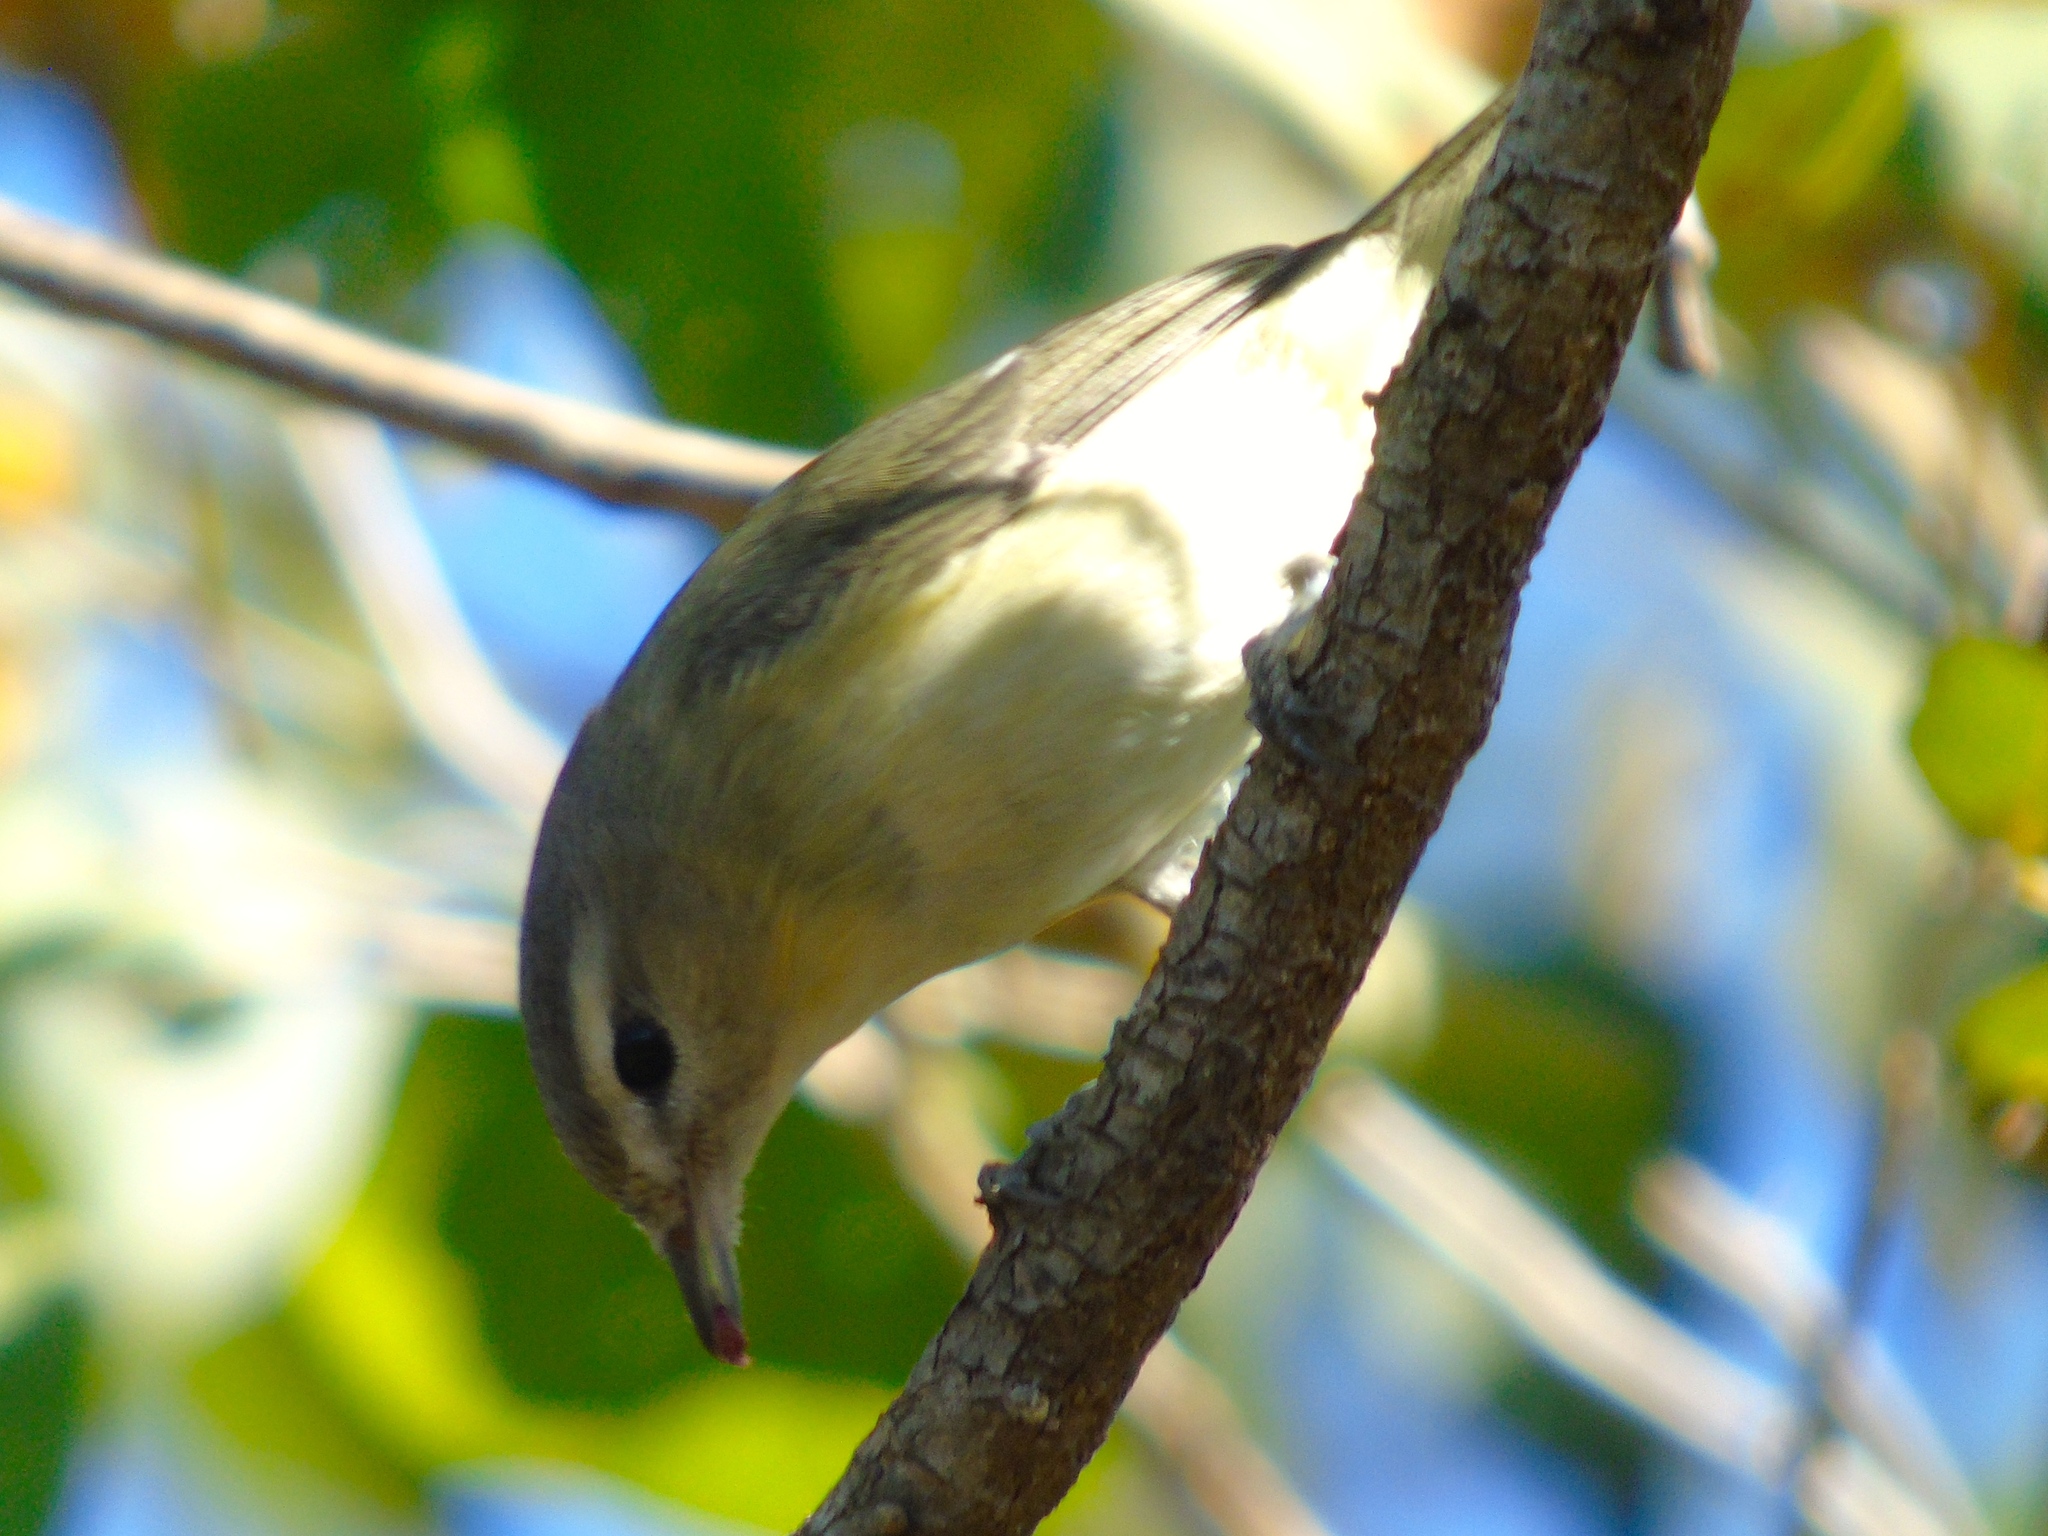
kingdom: Animalia
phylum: Chordata
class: Aves
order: Passeriformes
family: Vireonidae
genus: Vireo
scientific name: Vireo gilvus
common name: Warbling vireo
